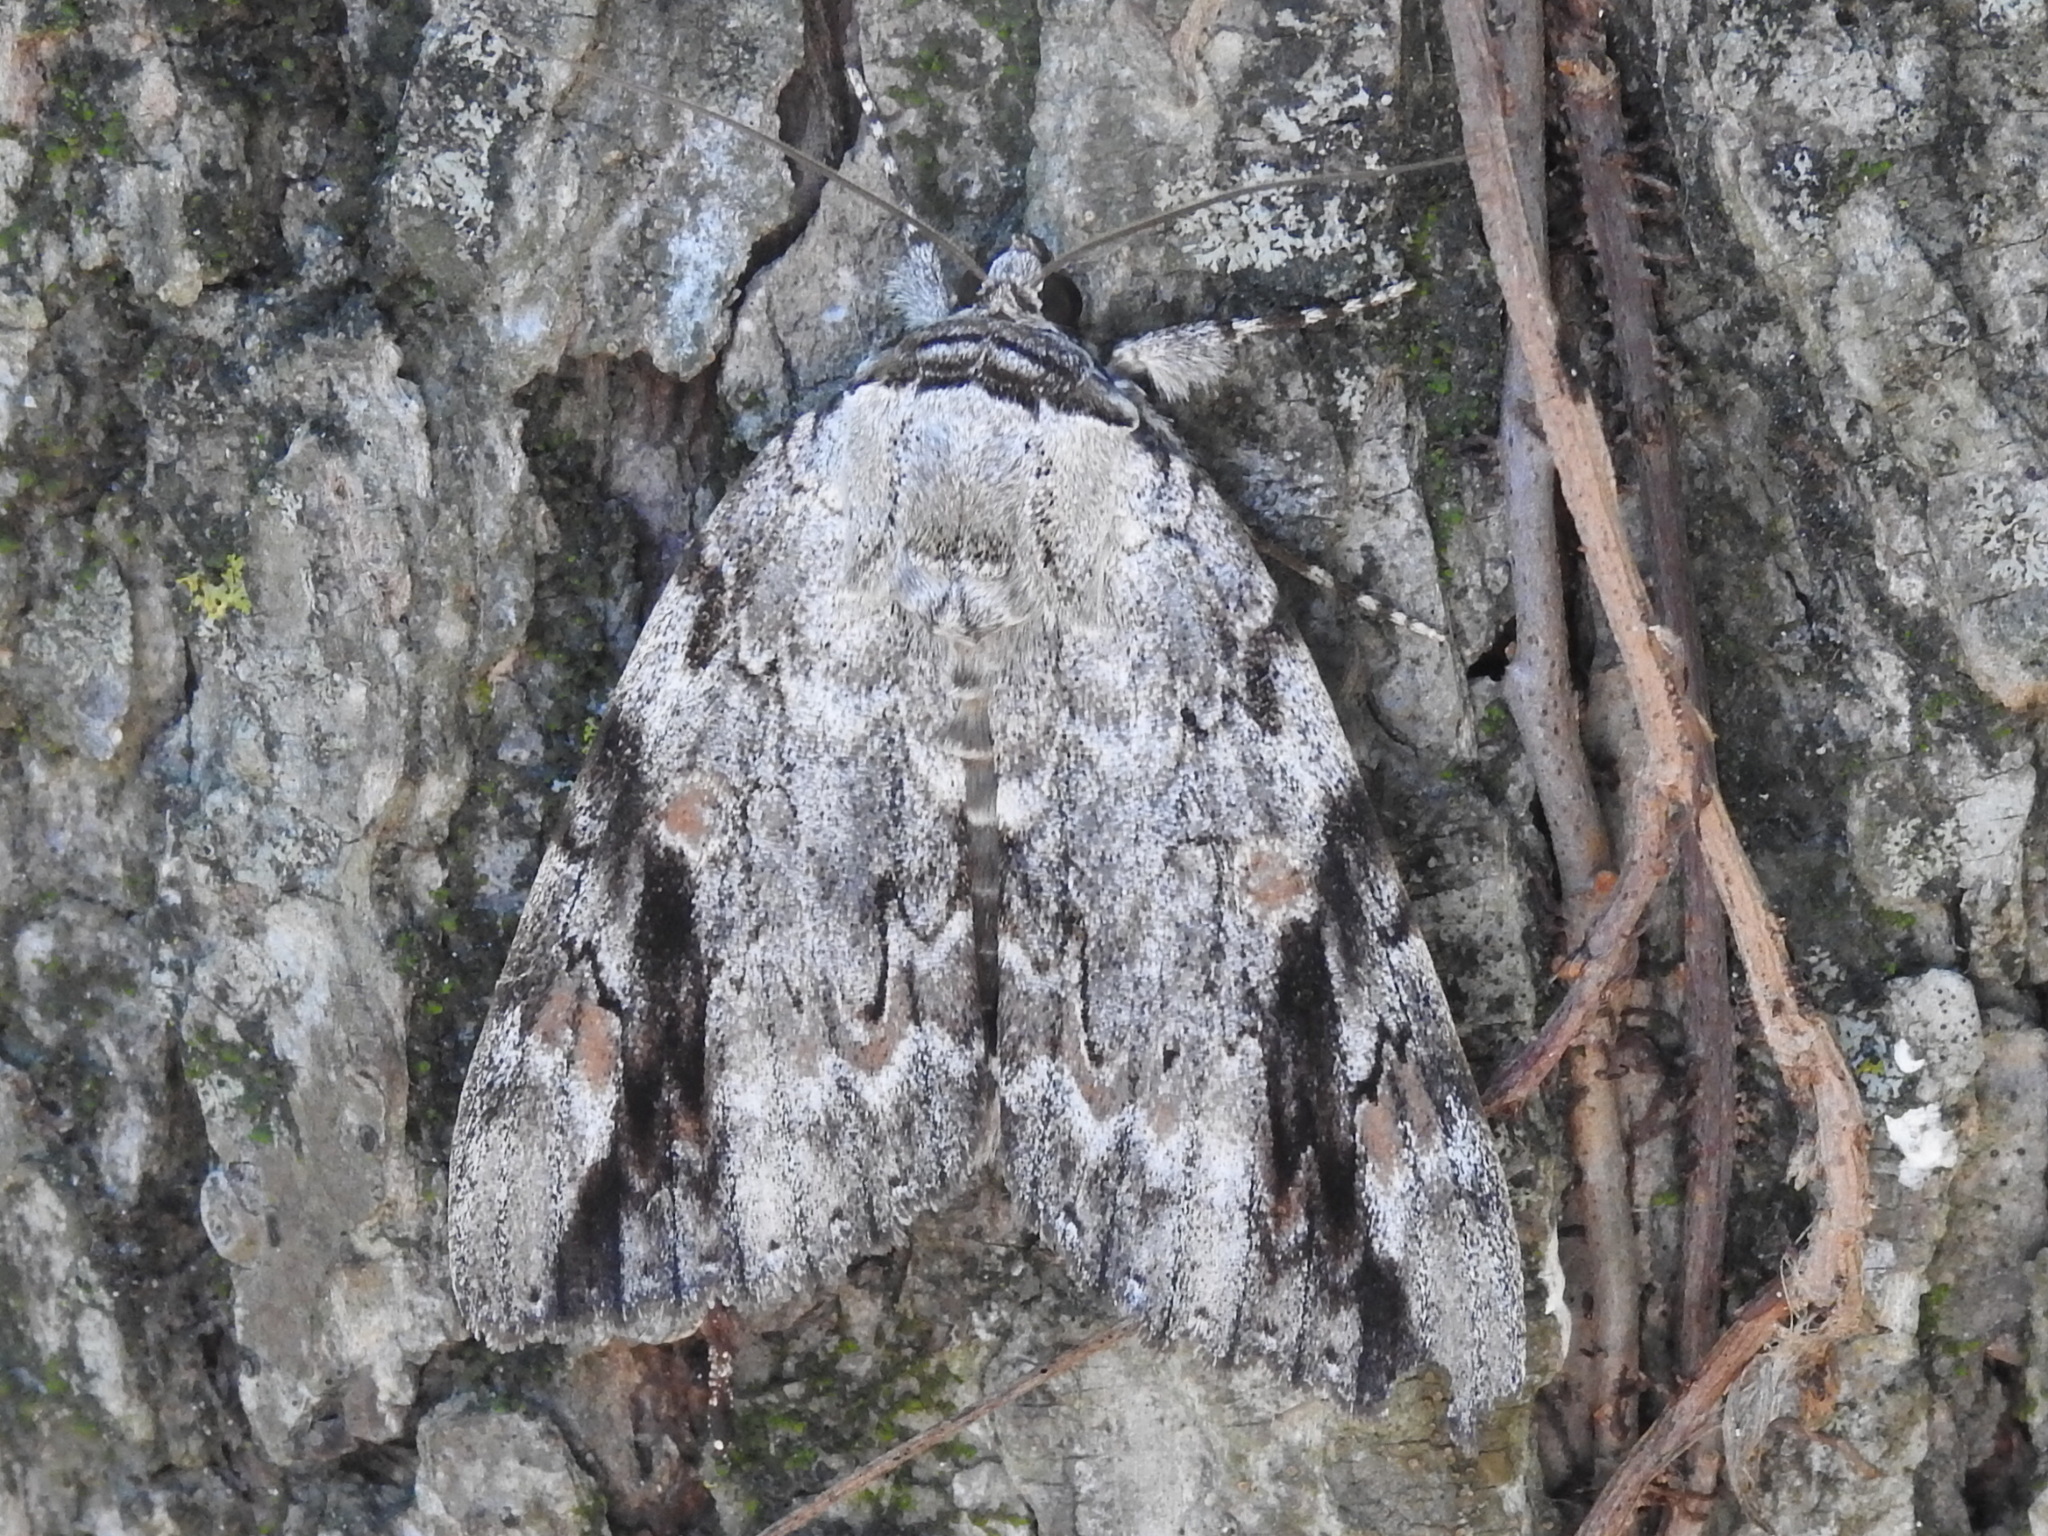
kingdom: Animalia
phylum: Arthropoda
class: Insecta
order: Lepidoptera
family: Erebidae
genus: Catocala
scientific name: Catocala maestosa
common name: Sad underwing
